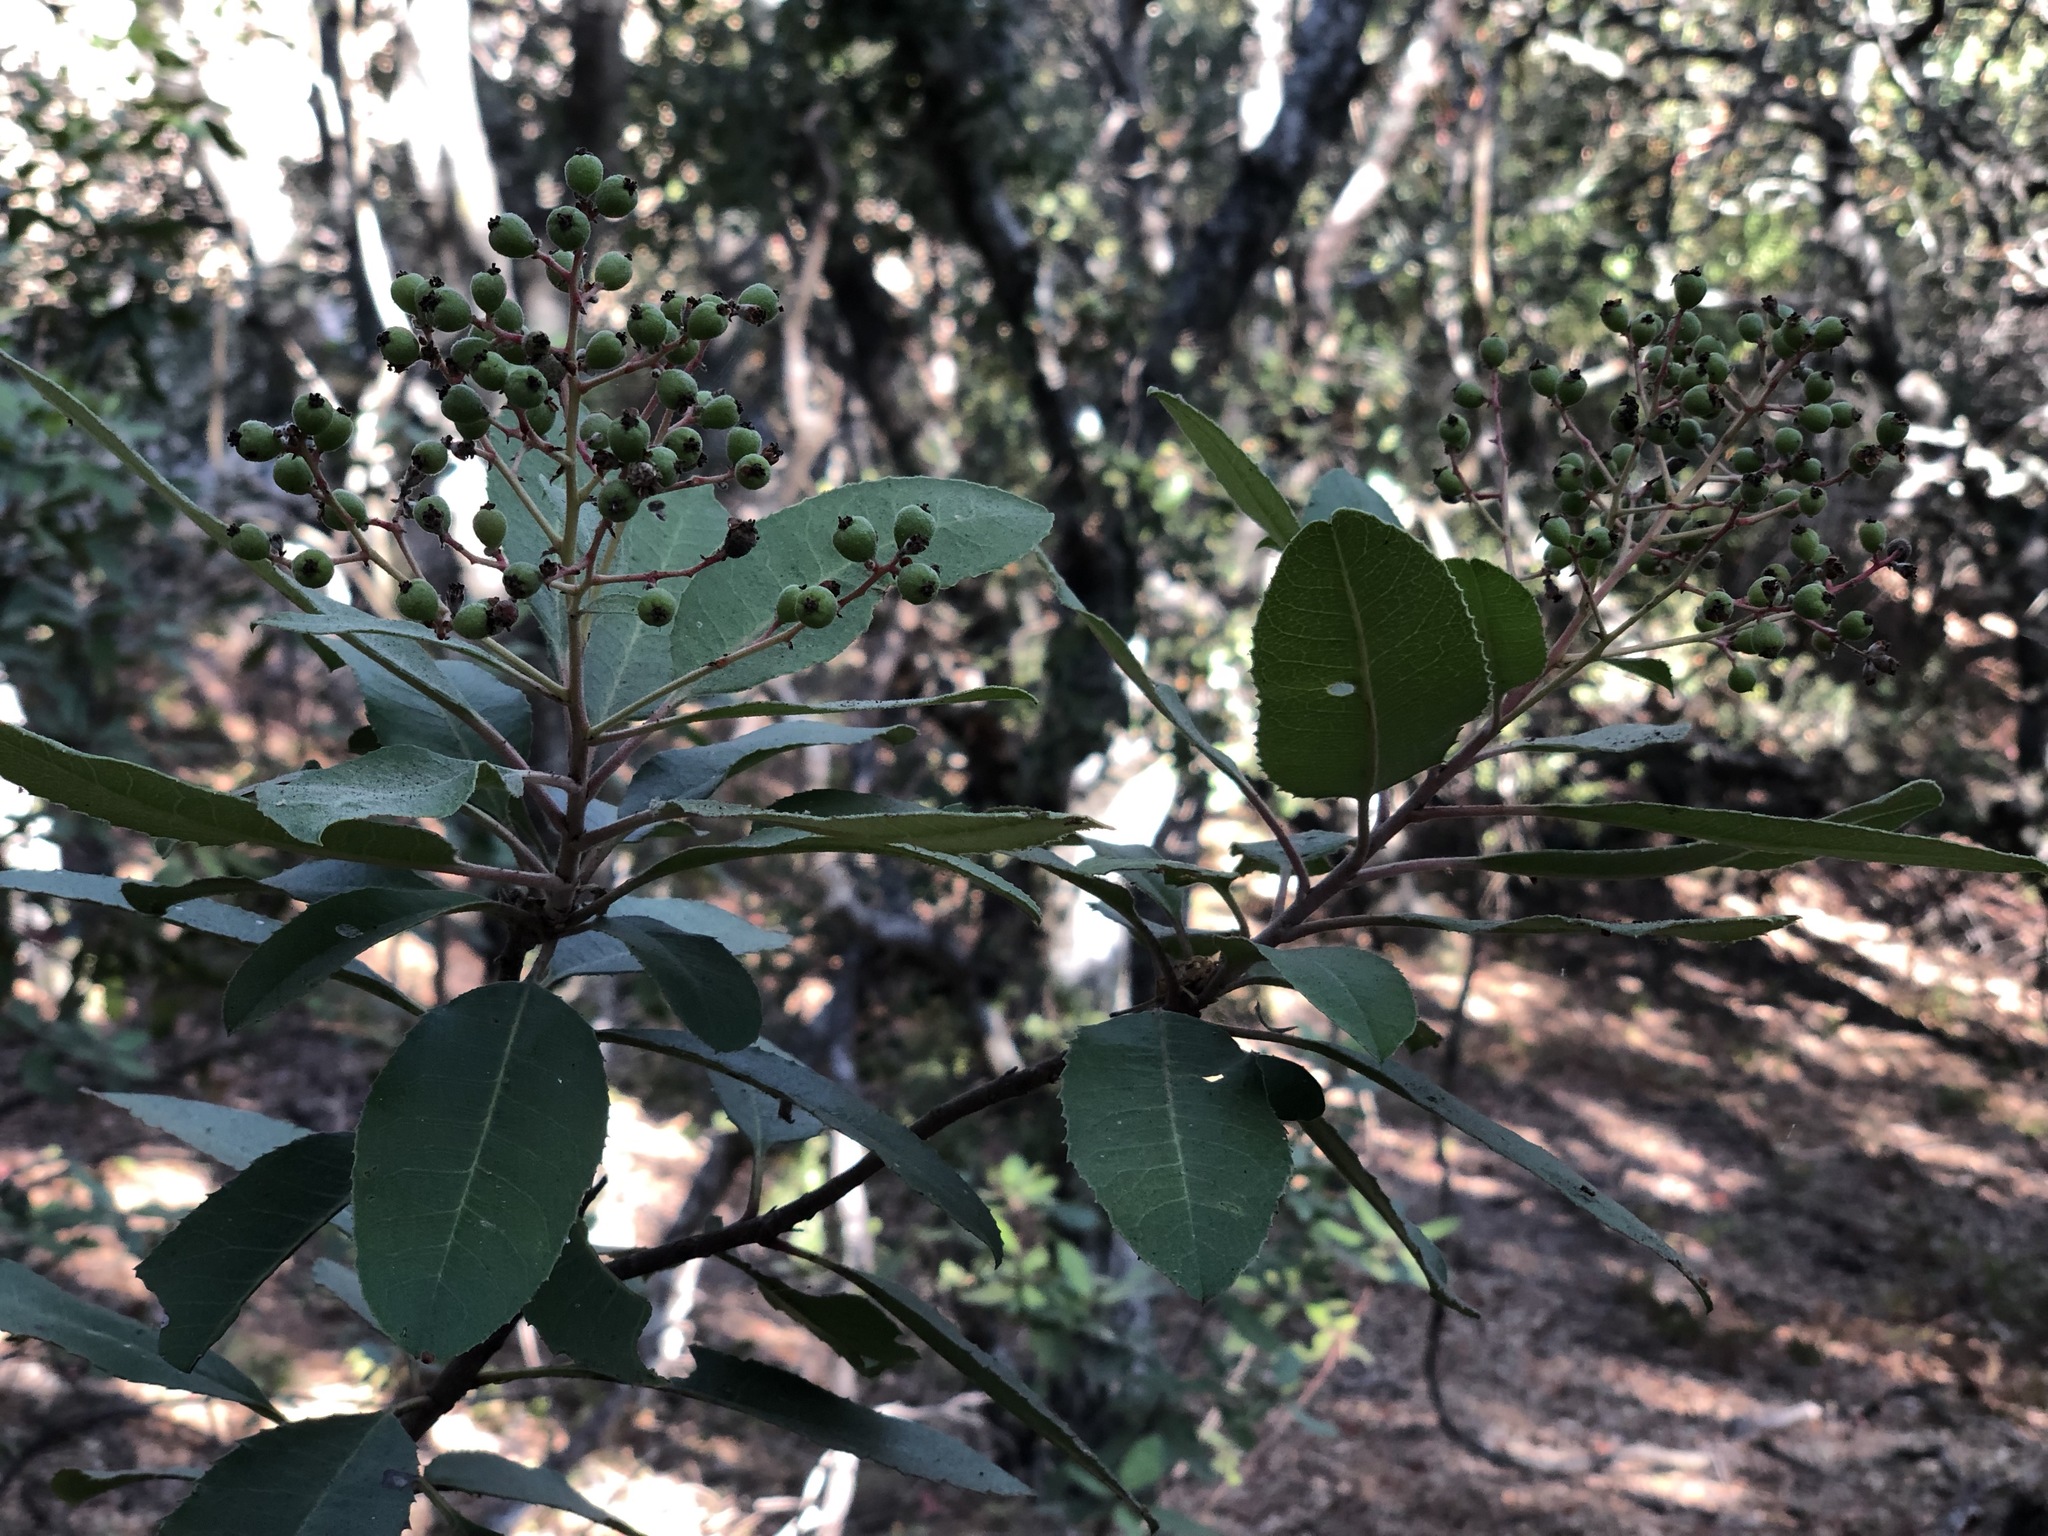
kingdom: Plantae
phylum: Tracheophyta
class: Magnoliopsida
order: Rosales
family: Rosaceae
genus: Heteromeles
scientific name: Heteromeles arbutifolia
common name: California-holly
